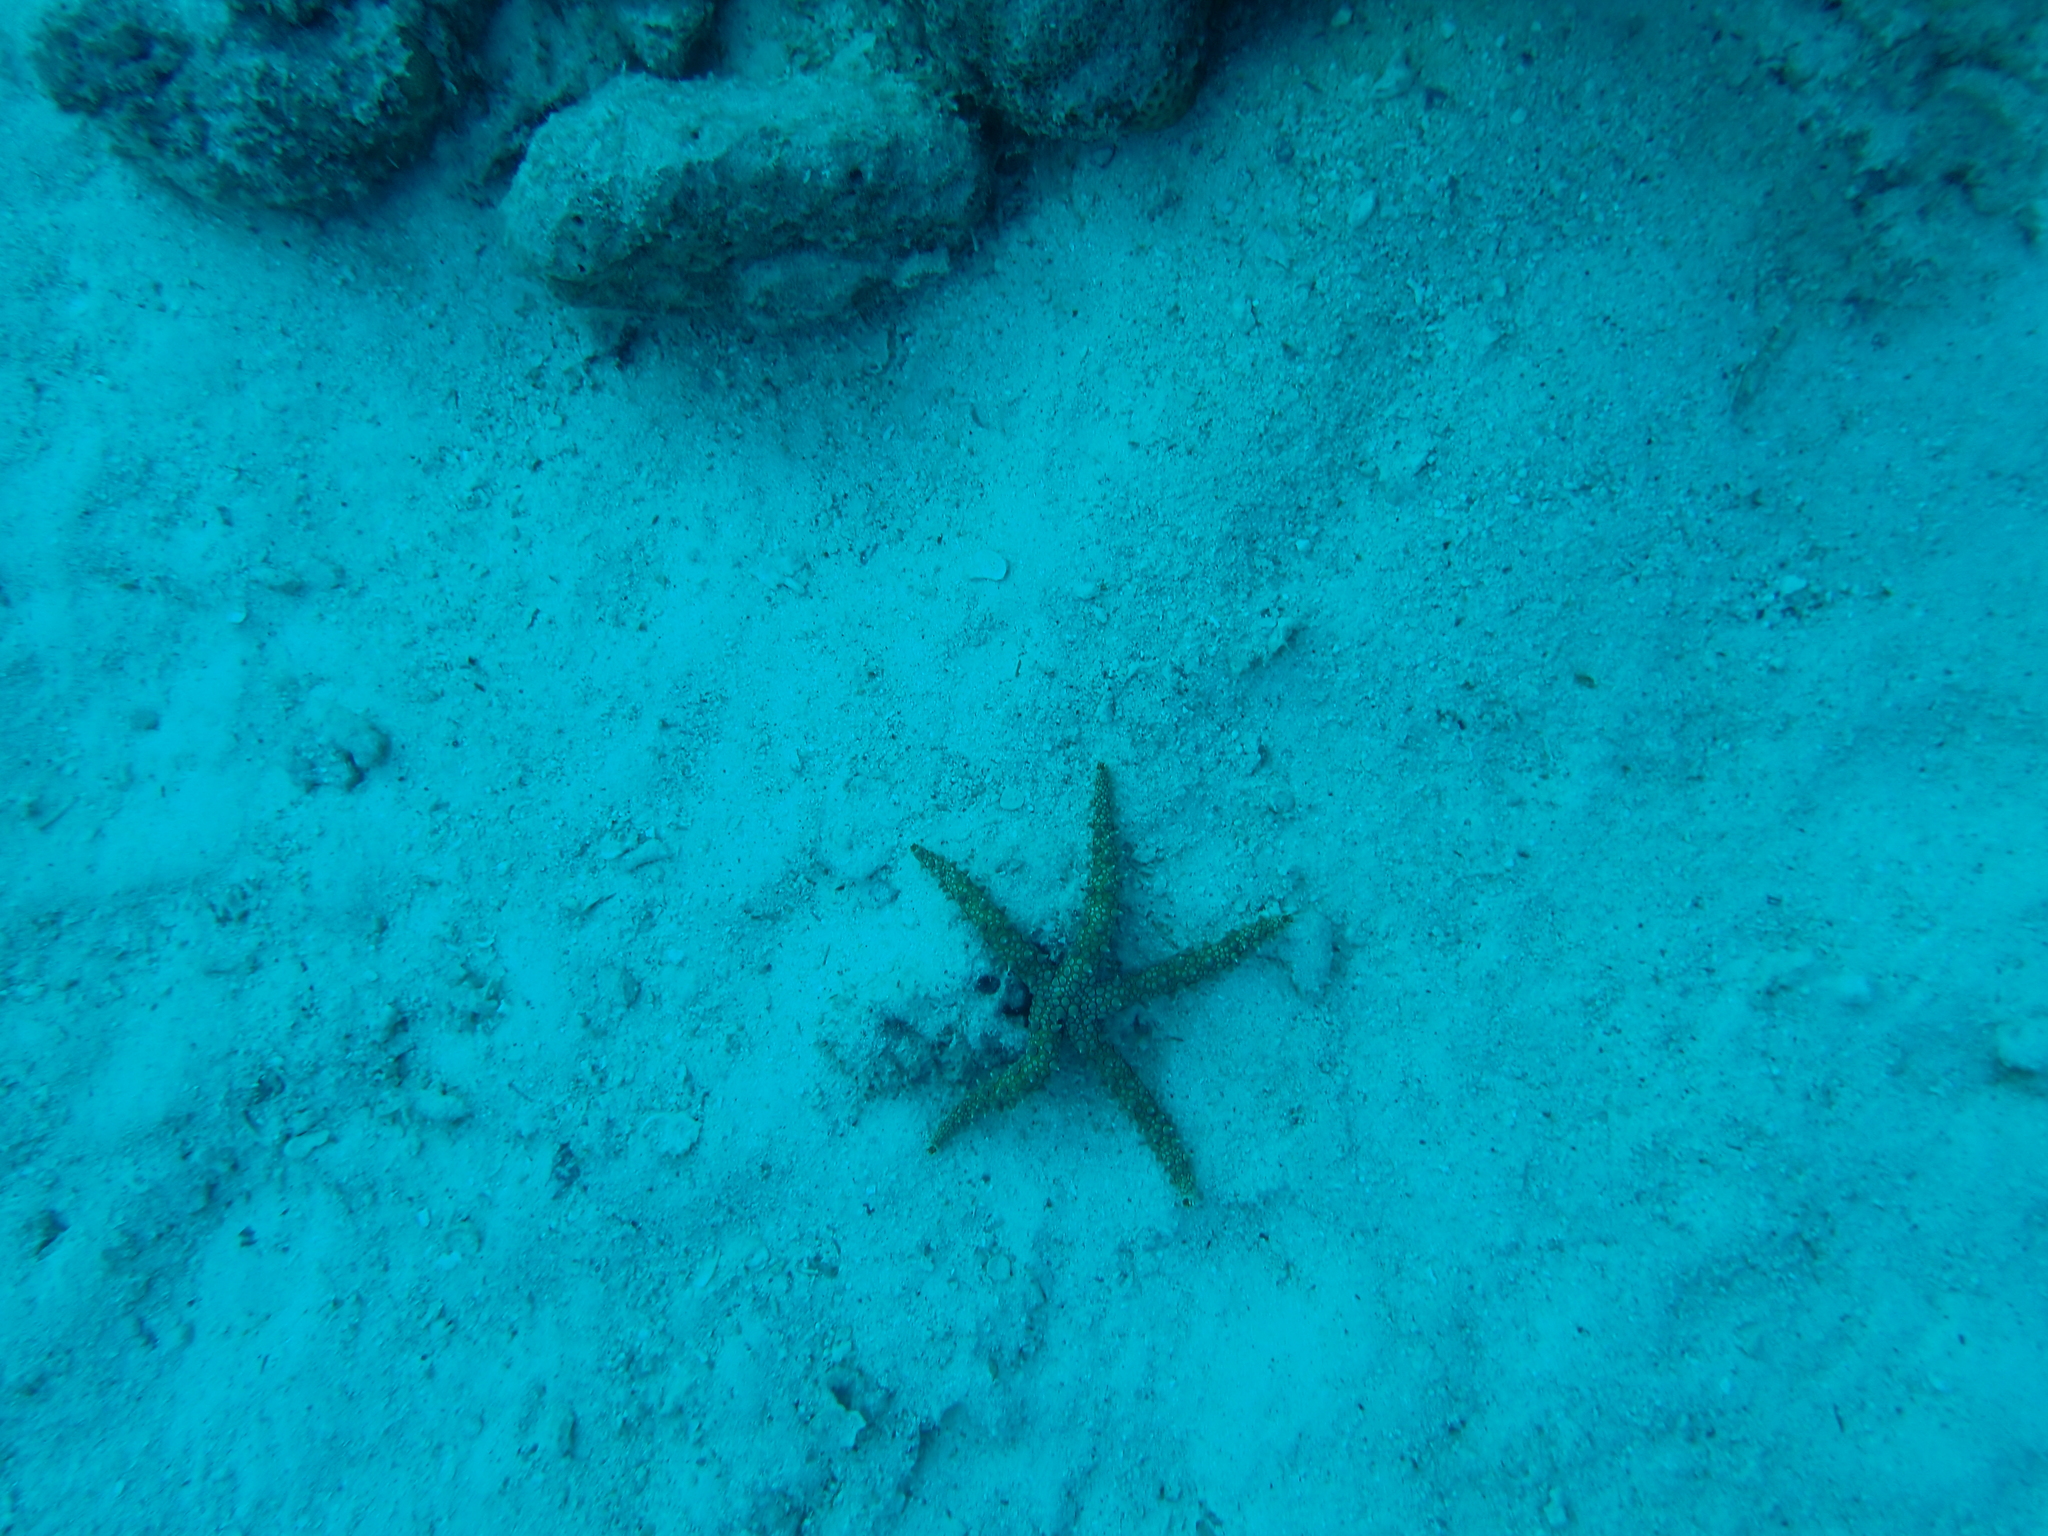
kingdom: Animalia
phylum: Echinodermata
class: Asteroidea
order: Valvatida
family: Ophidiasteridae
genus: Gomophia
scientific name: Gomophia egyptiaca
